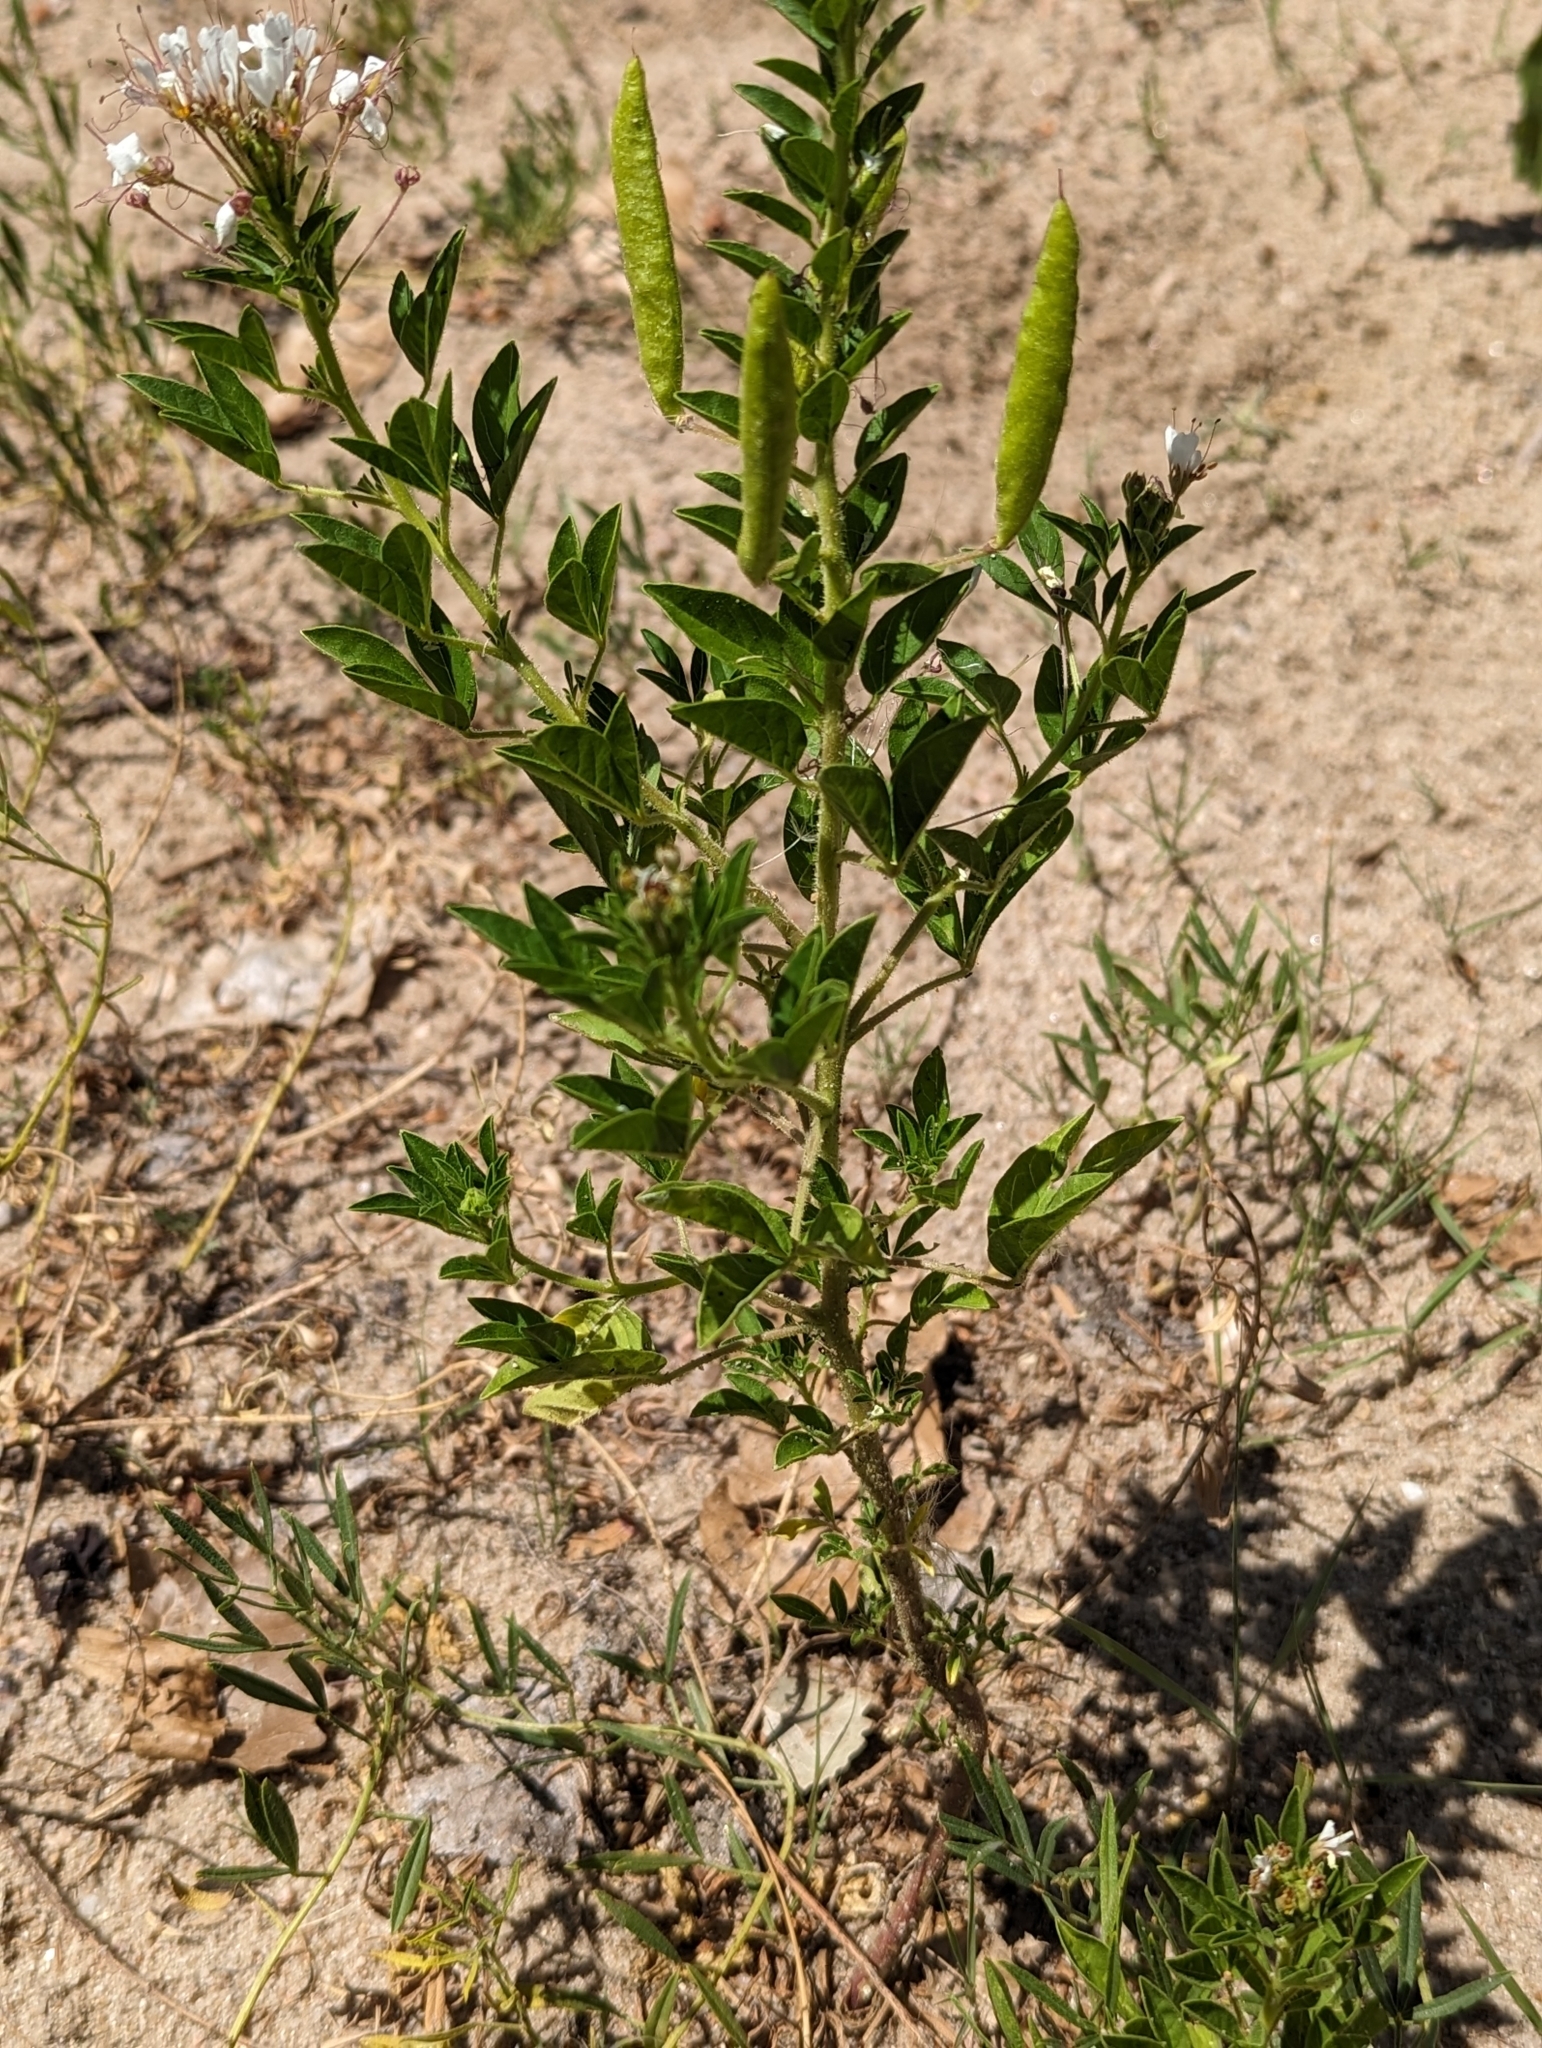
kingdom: Plantae
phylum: Tracheophyta
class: Magnoliopsida
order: Brassicales
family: Cleomaceae
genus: Polanisia
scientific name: Polanisia dodecandra
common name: Clammyweed
